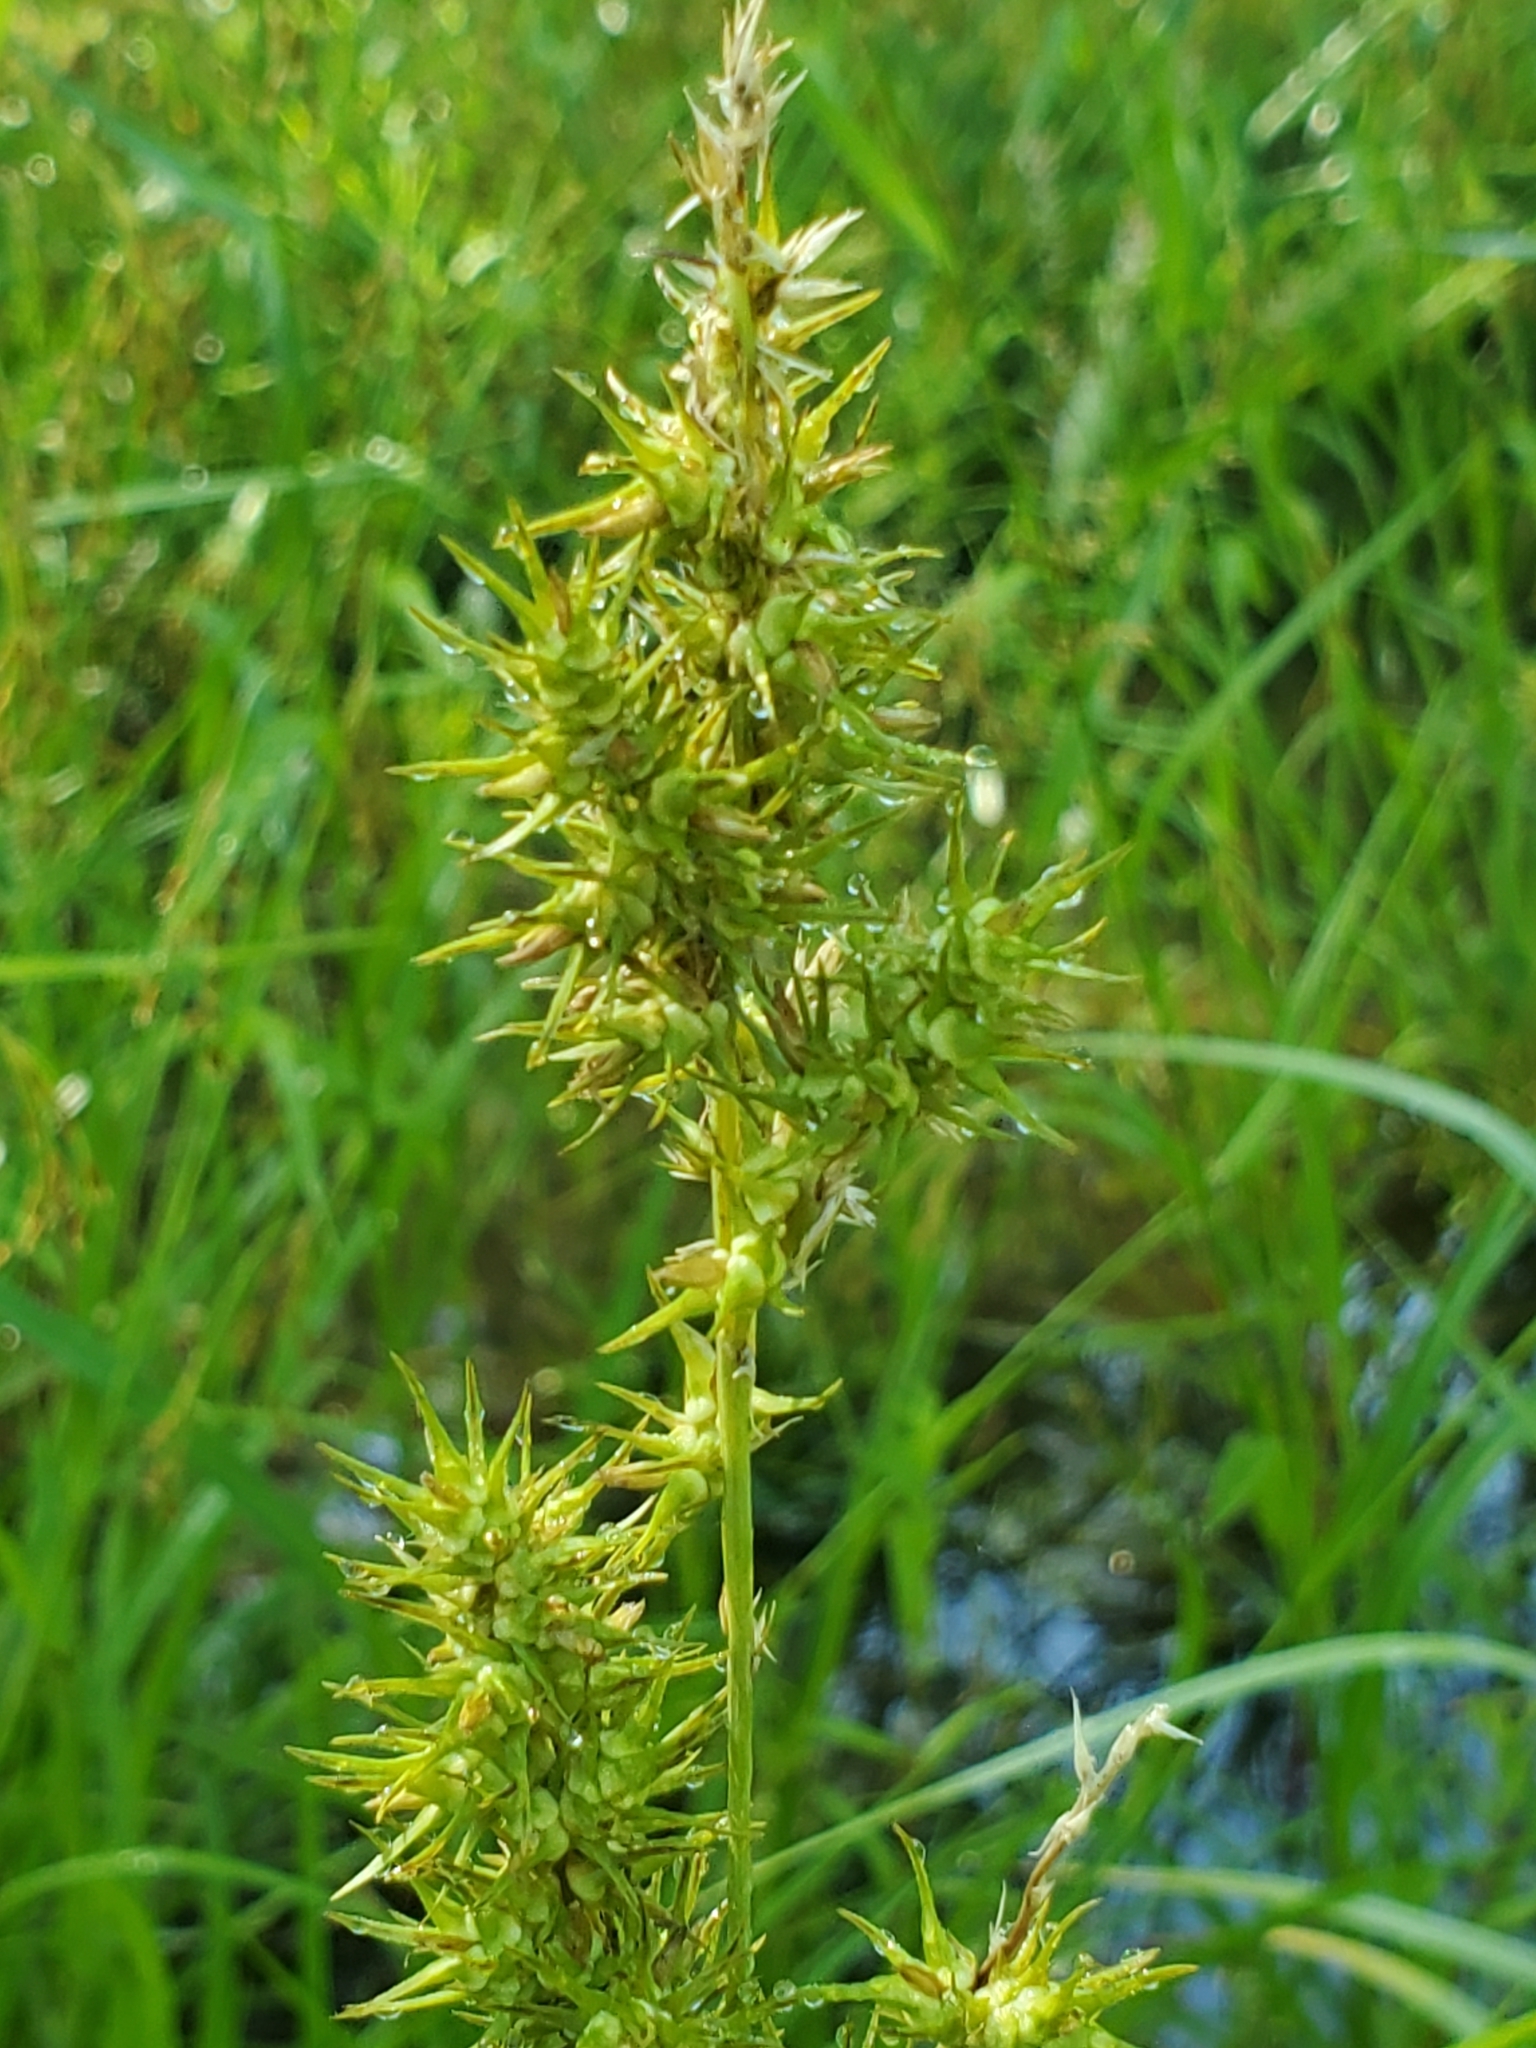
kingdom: Plantae
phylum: Tracheophyta
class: Liliopsida
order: Poales
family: Cyperaceae
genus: Carex
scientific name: Carex crus-corvi
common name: Crow-spur sedge
